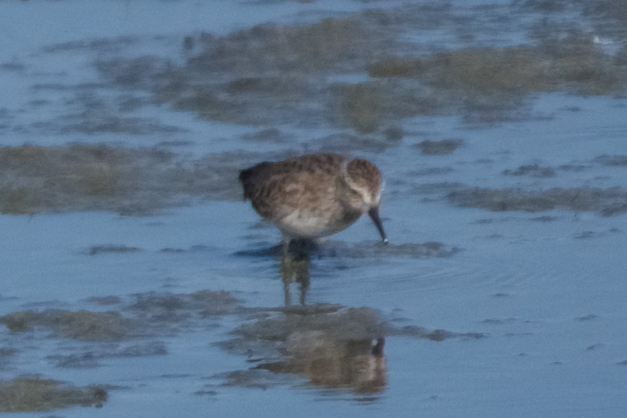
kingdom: Animalia
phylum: Chordata
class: Aves
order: Charadriiformes
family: Scolopacidae
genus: Calidris
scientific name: Calidris minutilla
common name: Least sandpiper
